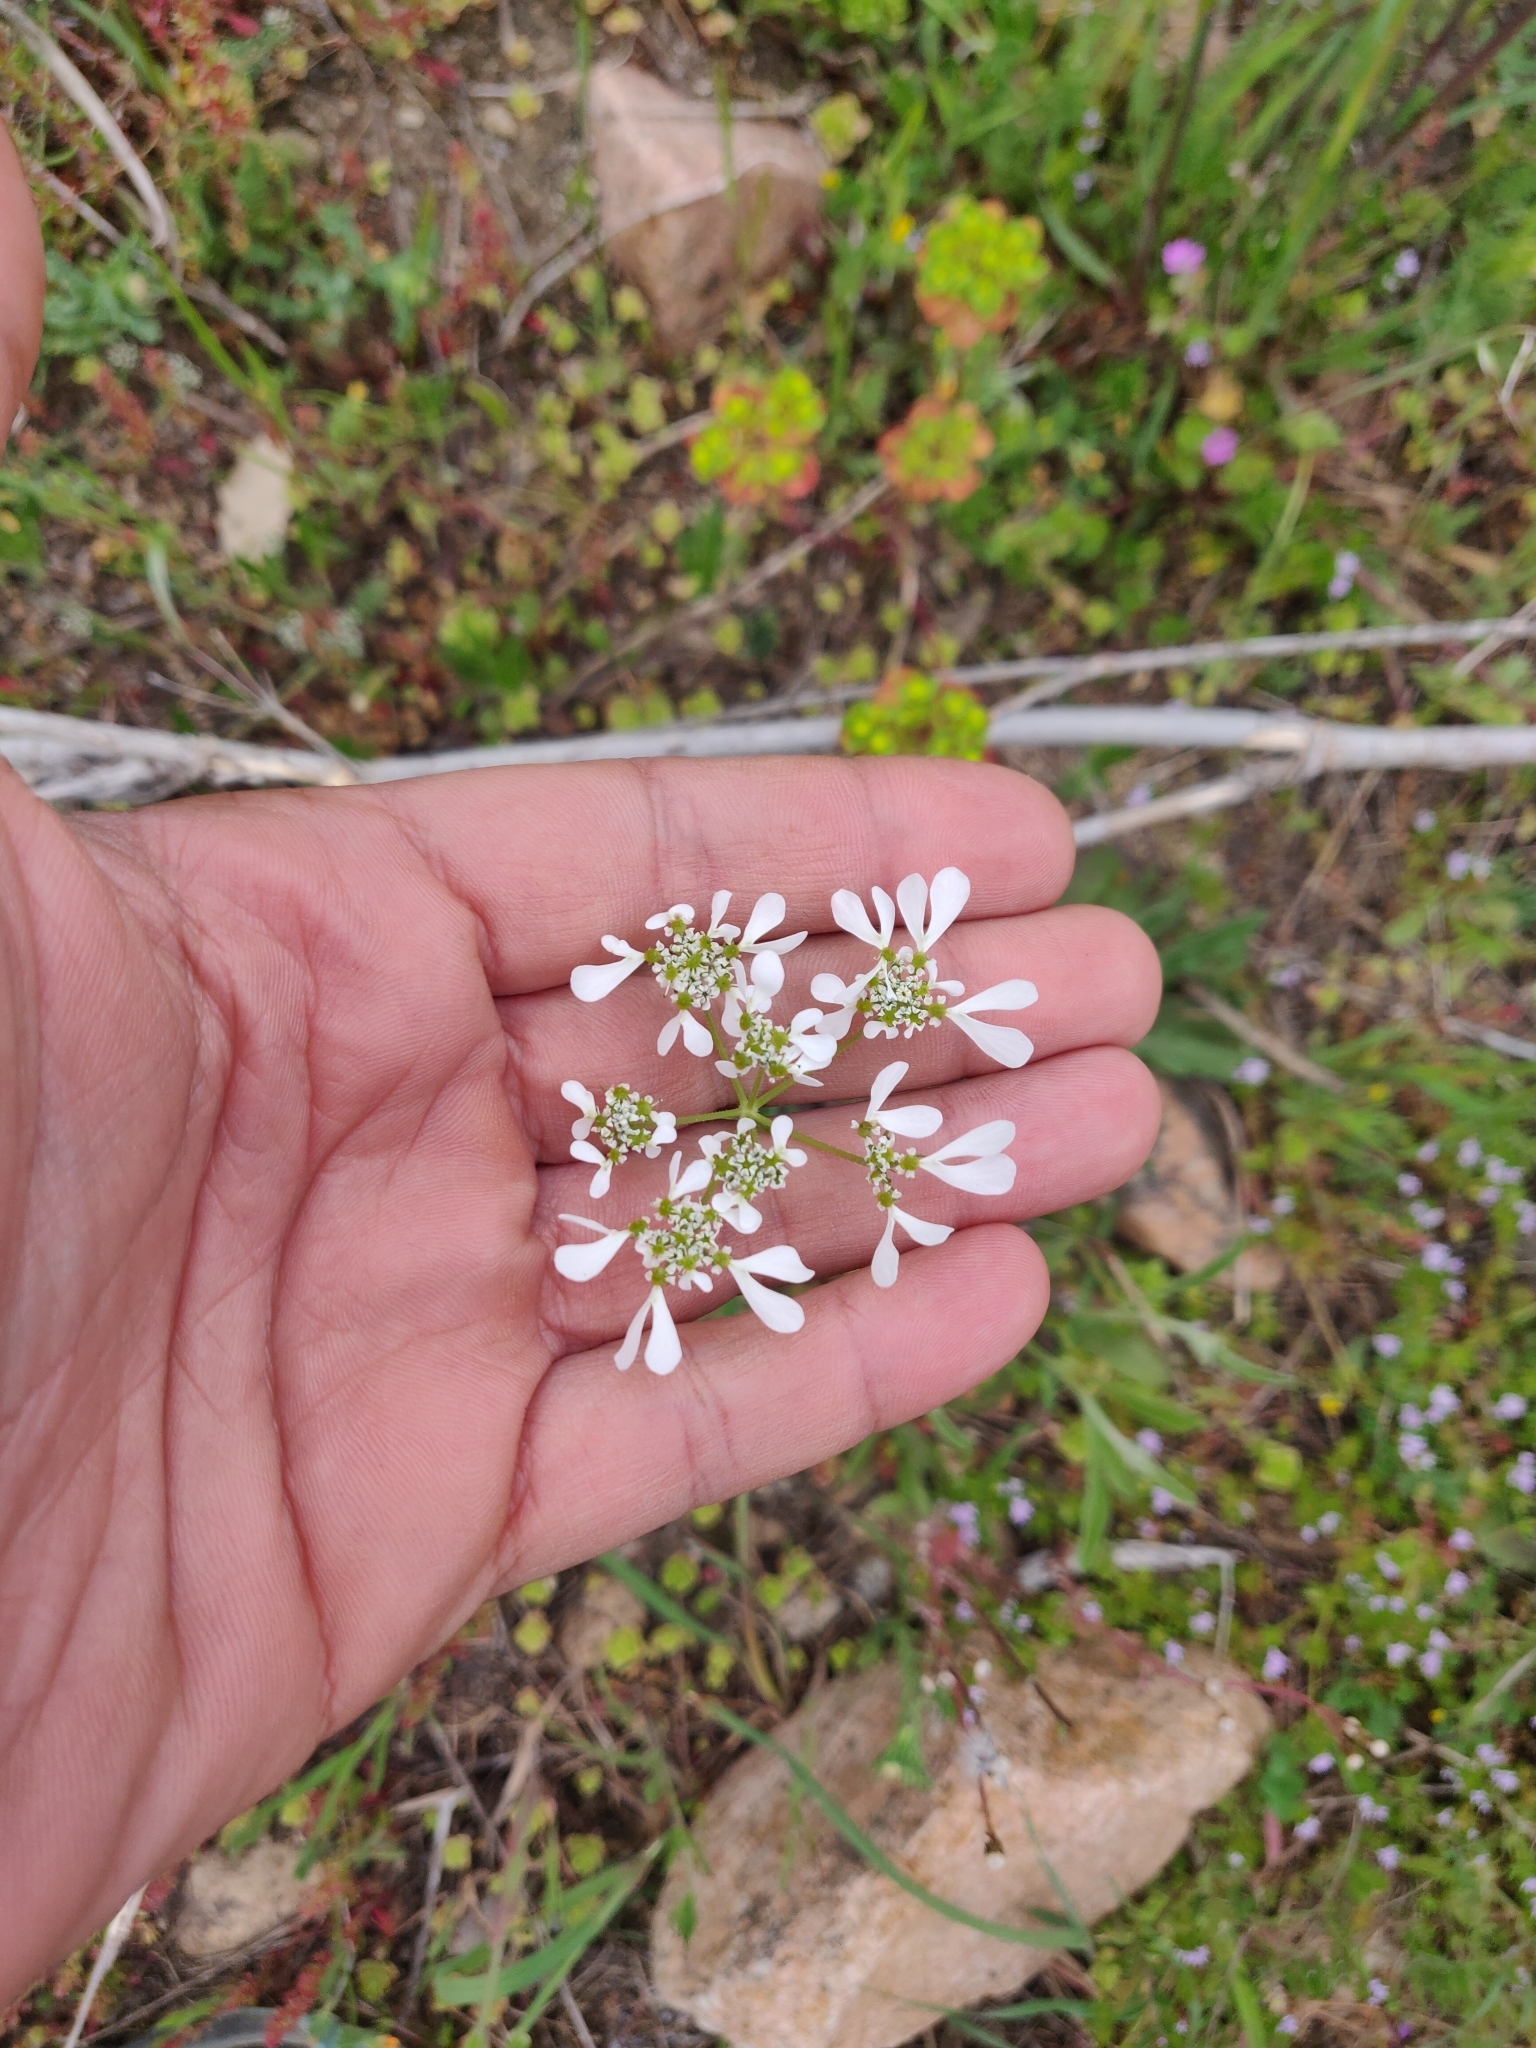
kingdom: Plantae
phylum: Tracheophyta
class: Magnoliopsida
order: Apiales
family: Apiaceae
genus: Tordylium
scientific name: Tordylium apulum
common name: Mediterranean hartwort
